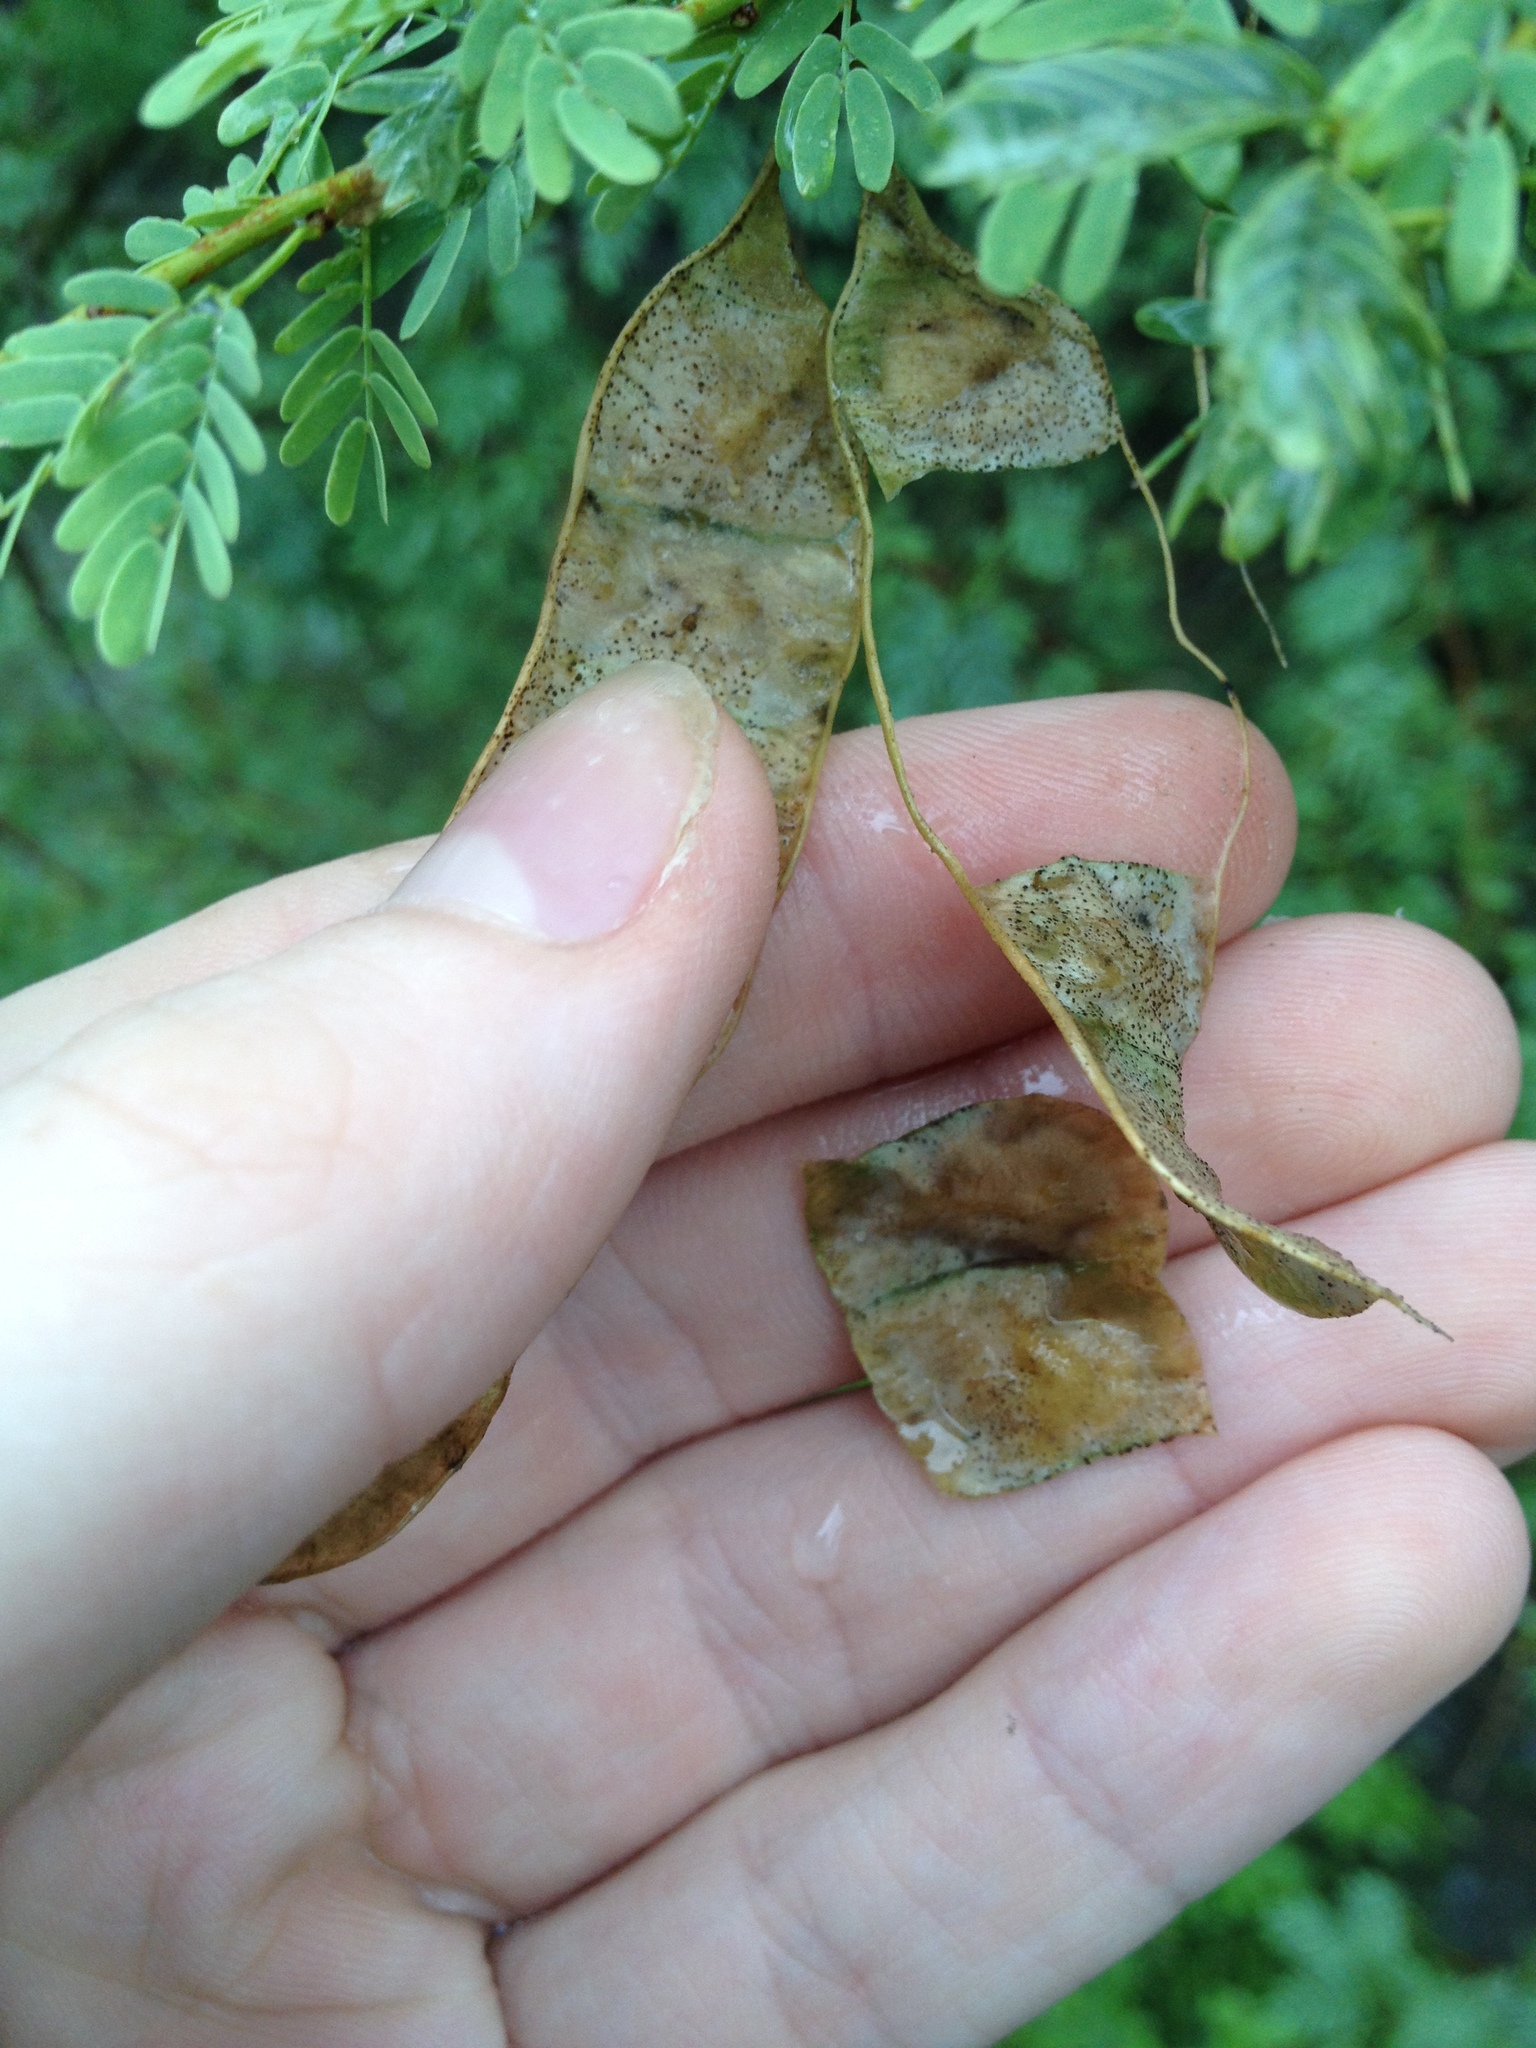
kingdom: Plantae
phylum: Tracheophyta
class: Magnoliopsida
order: Fabales
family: Fabaceae
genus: Mimosa
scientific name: Mimosa detinens
